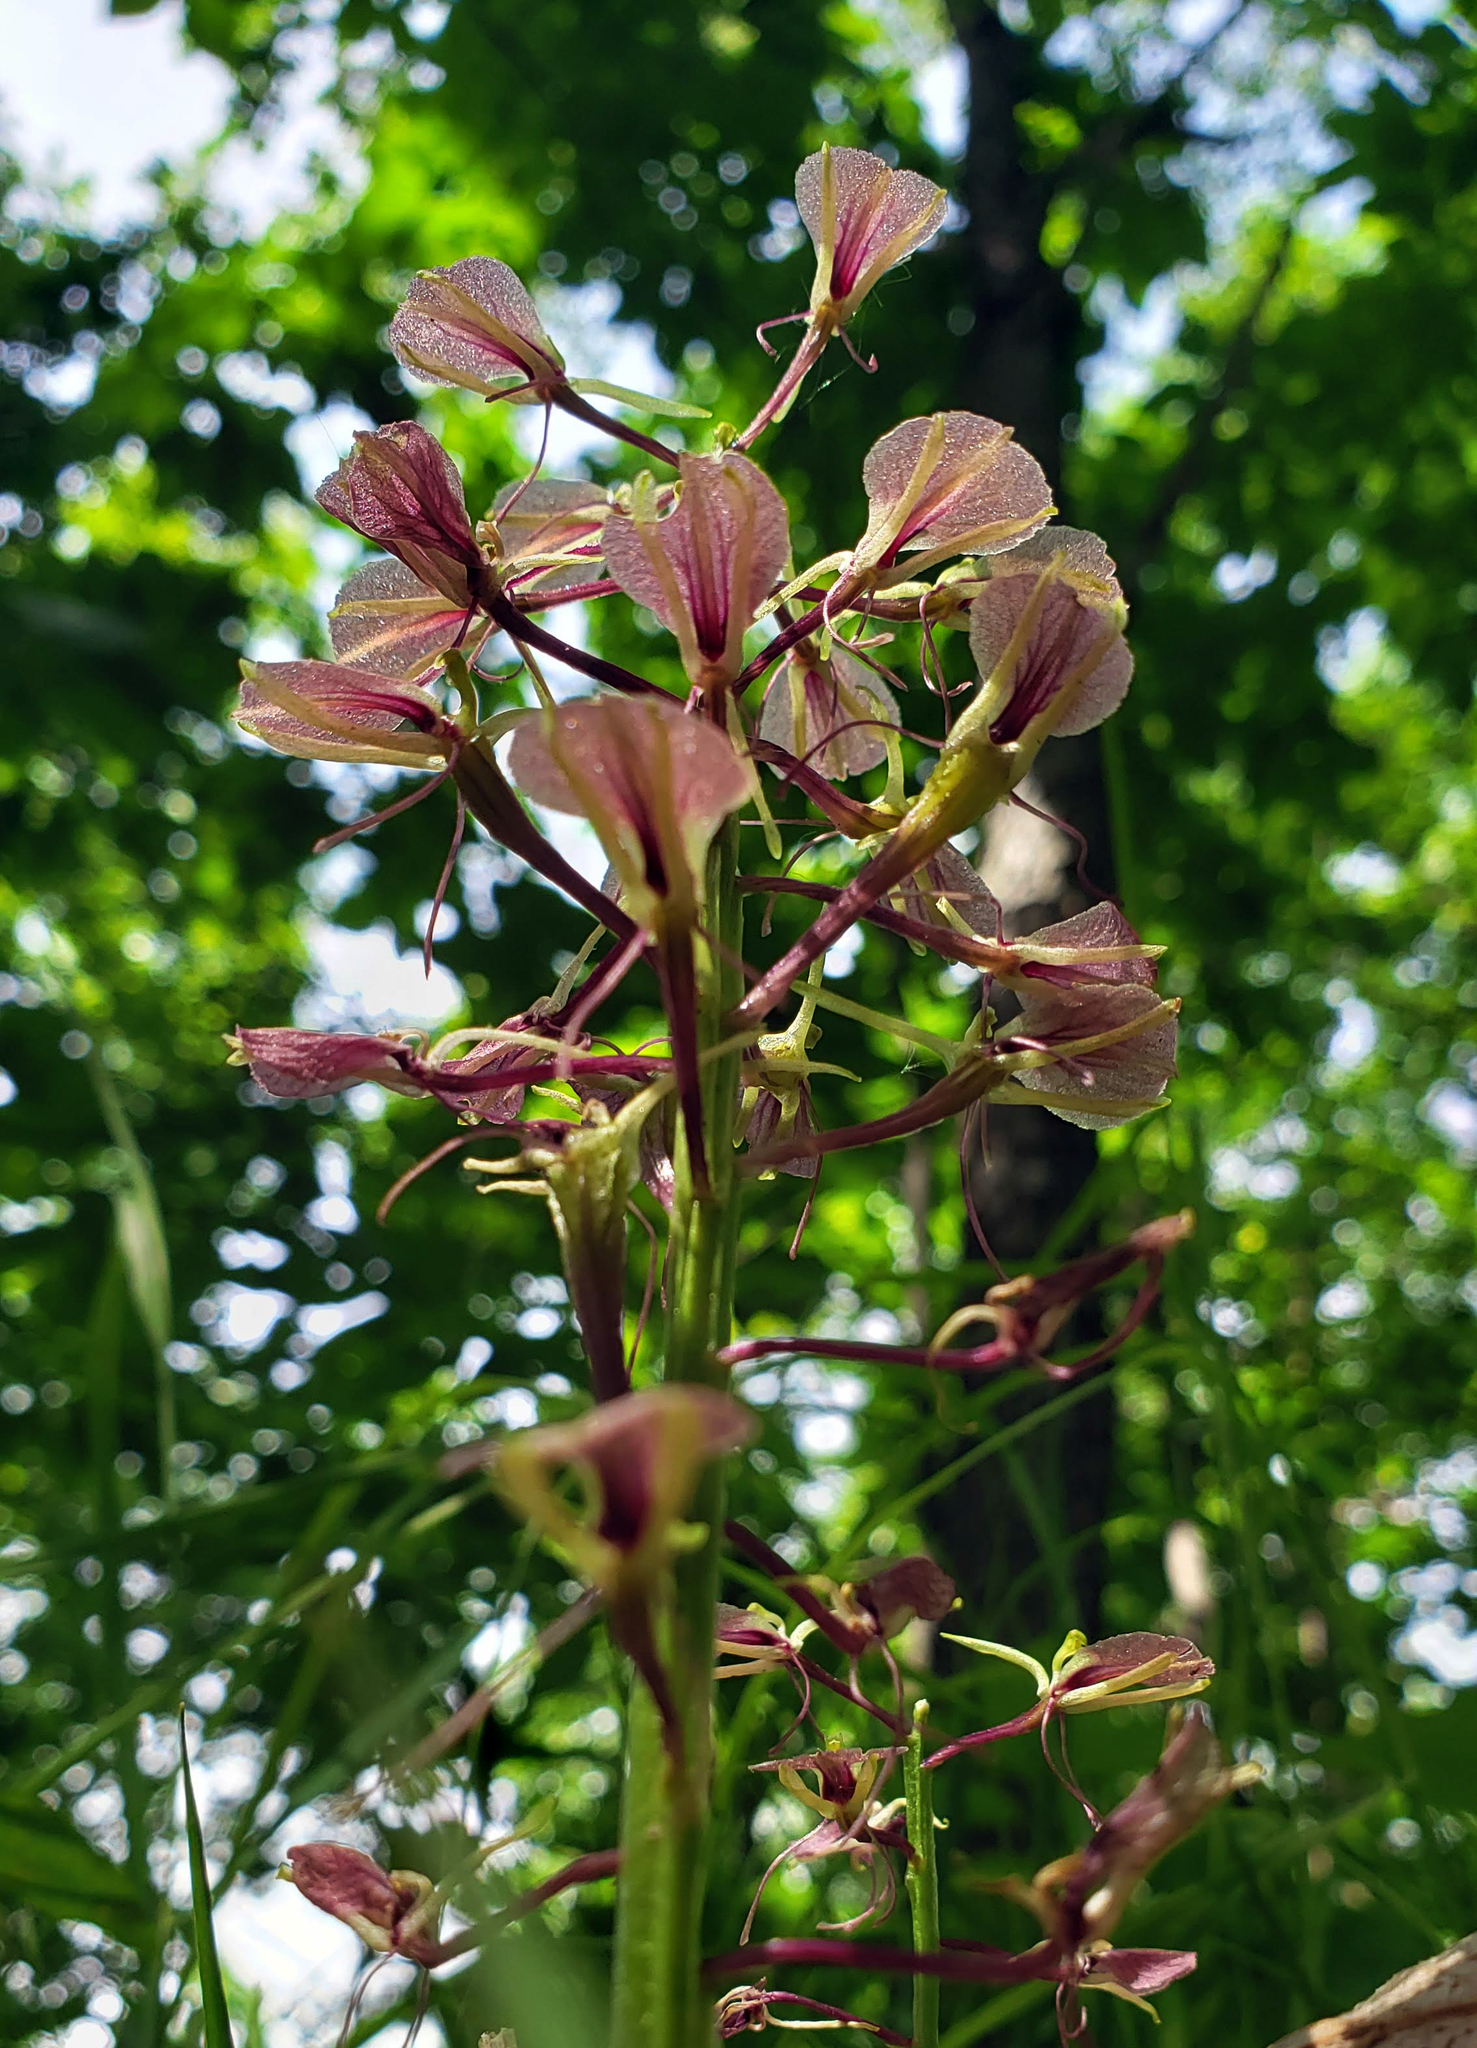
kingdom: Plantae
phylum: Tracheophyta
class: Liliopsida
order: Asparagales
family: Orchidaceae
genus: Liparis
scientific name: Liparis liliifolia
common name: Brown wide-lip orchid
